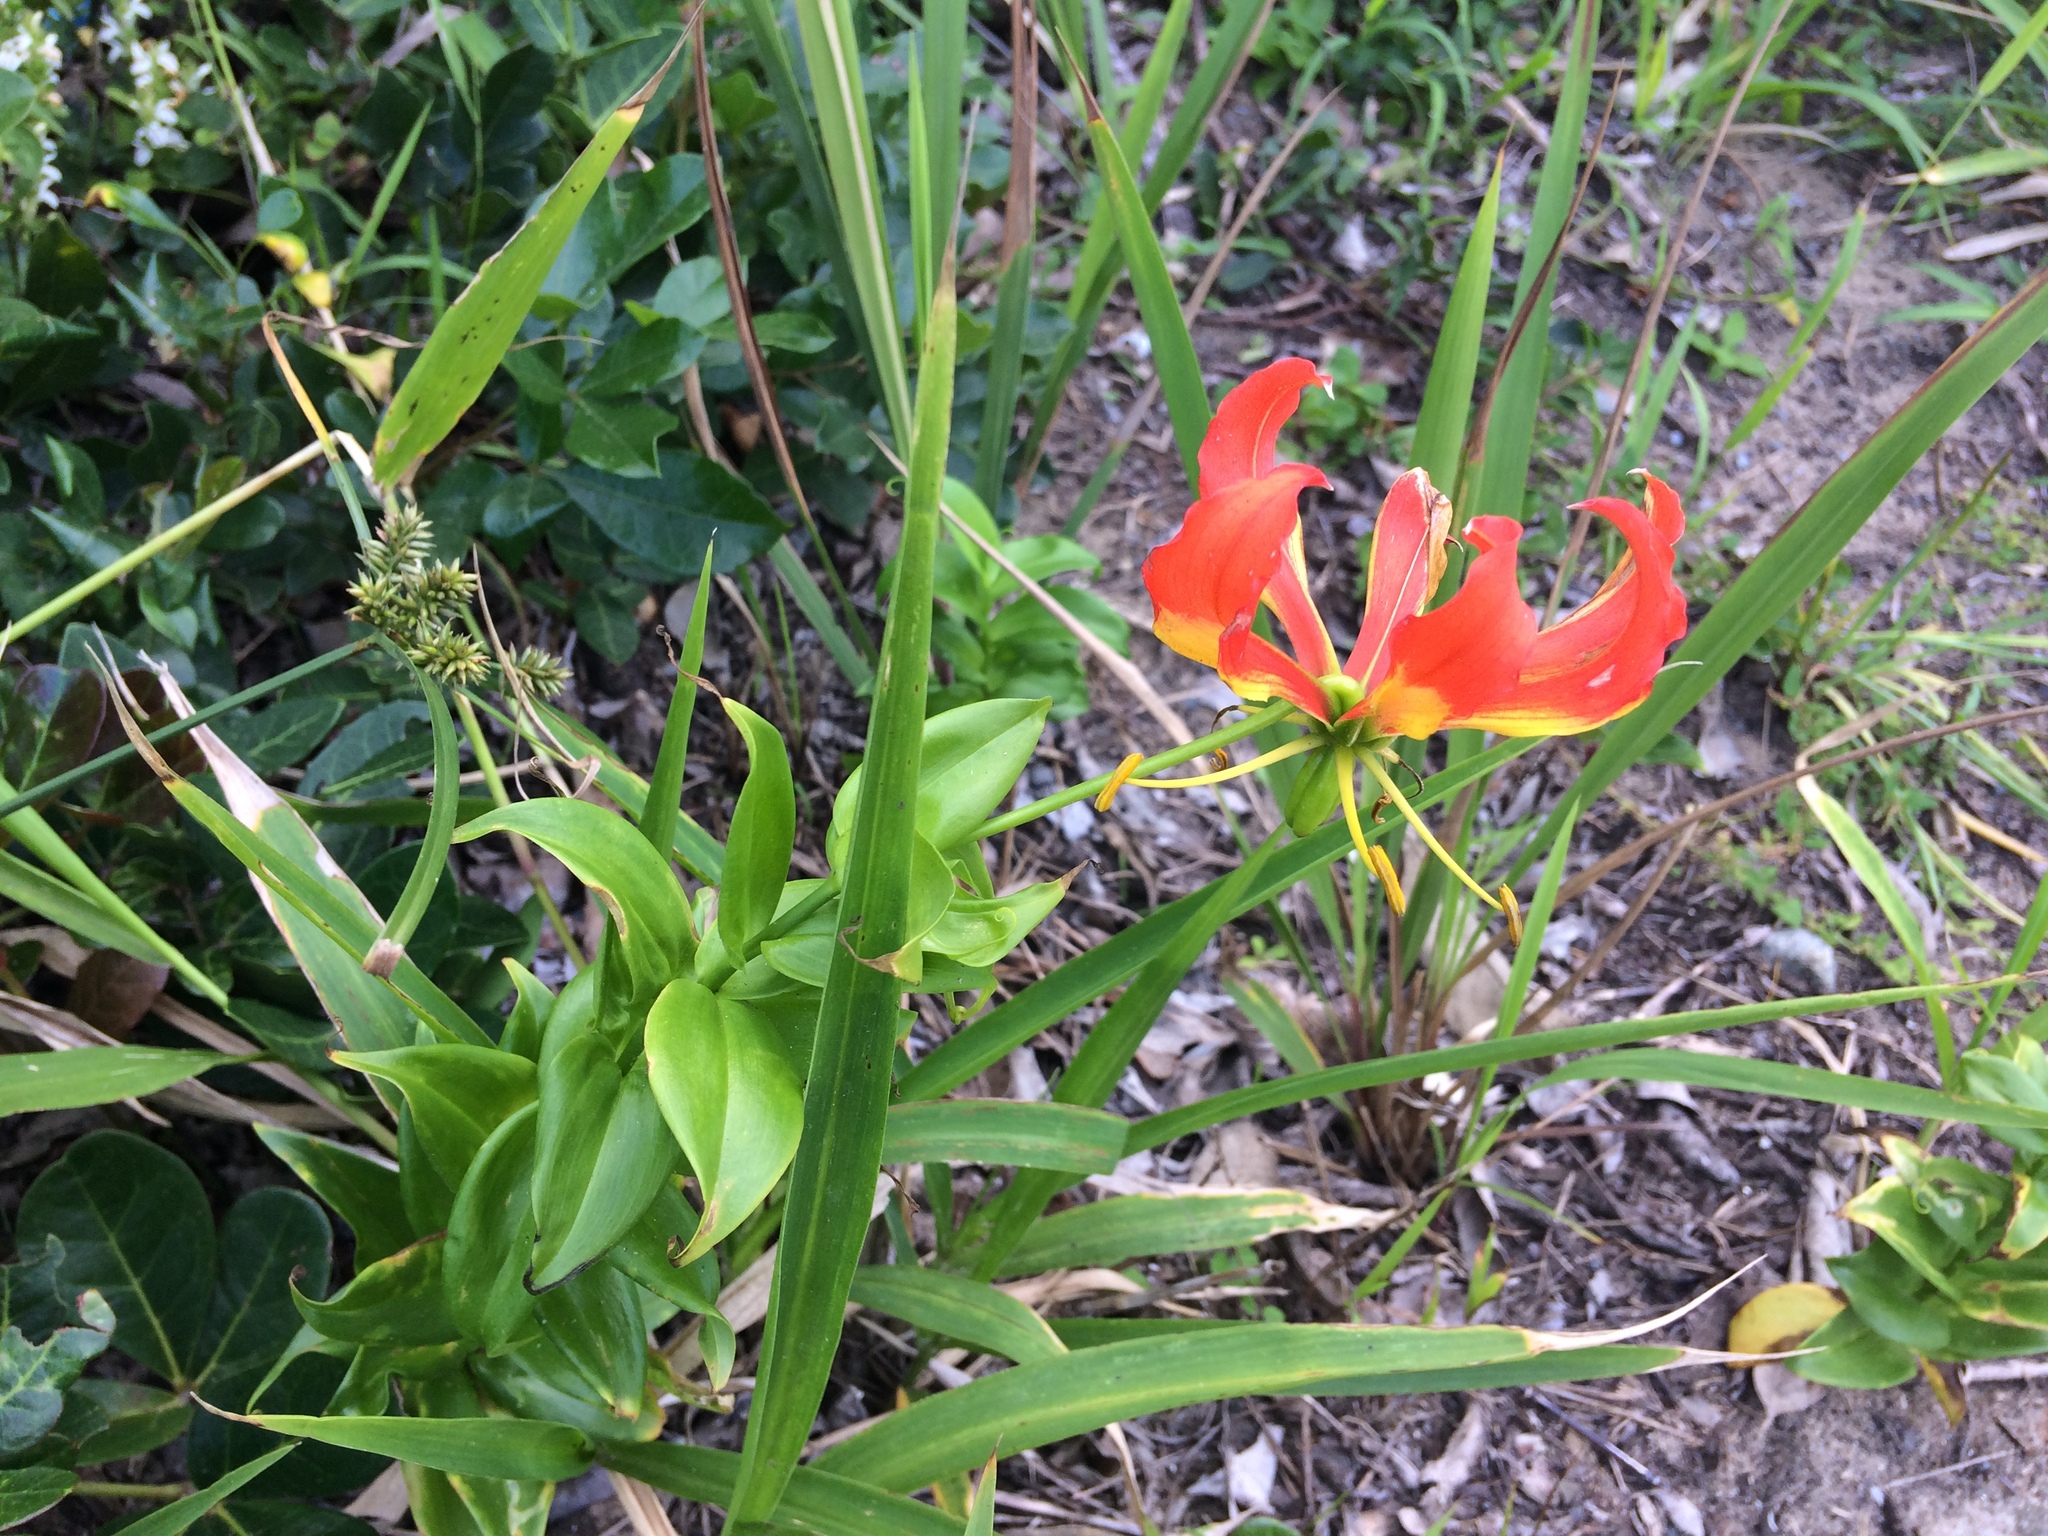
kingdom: Plantae
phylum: Tracheophyta
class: Liliopsida
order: Liliales
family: Colchicaceae
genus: Gloriosa
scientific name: Gloriosa superba
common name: Flame lily
